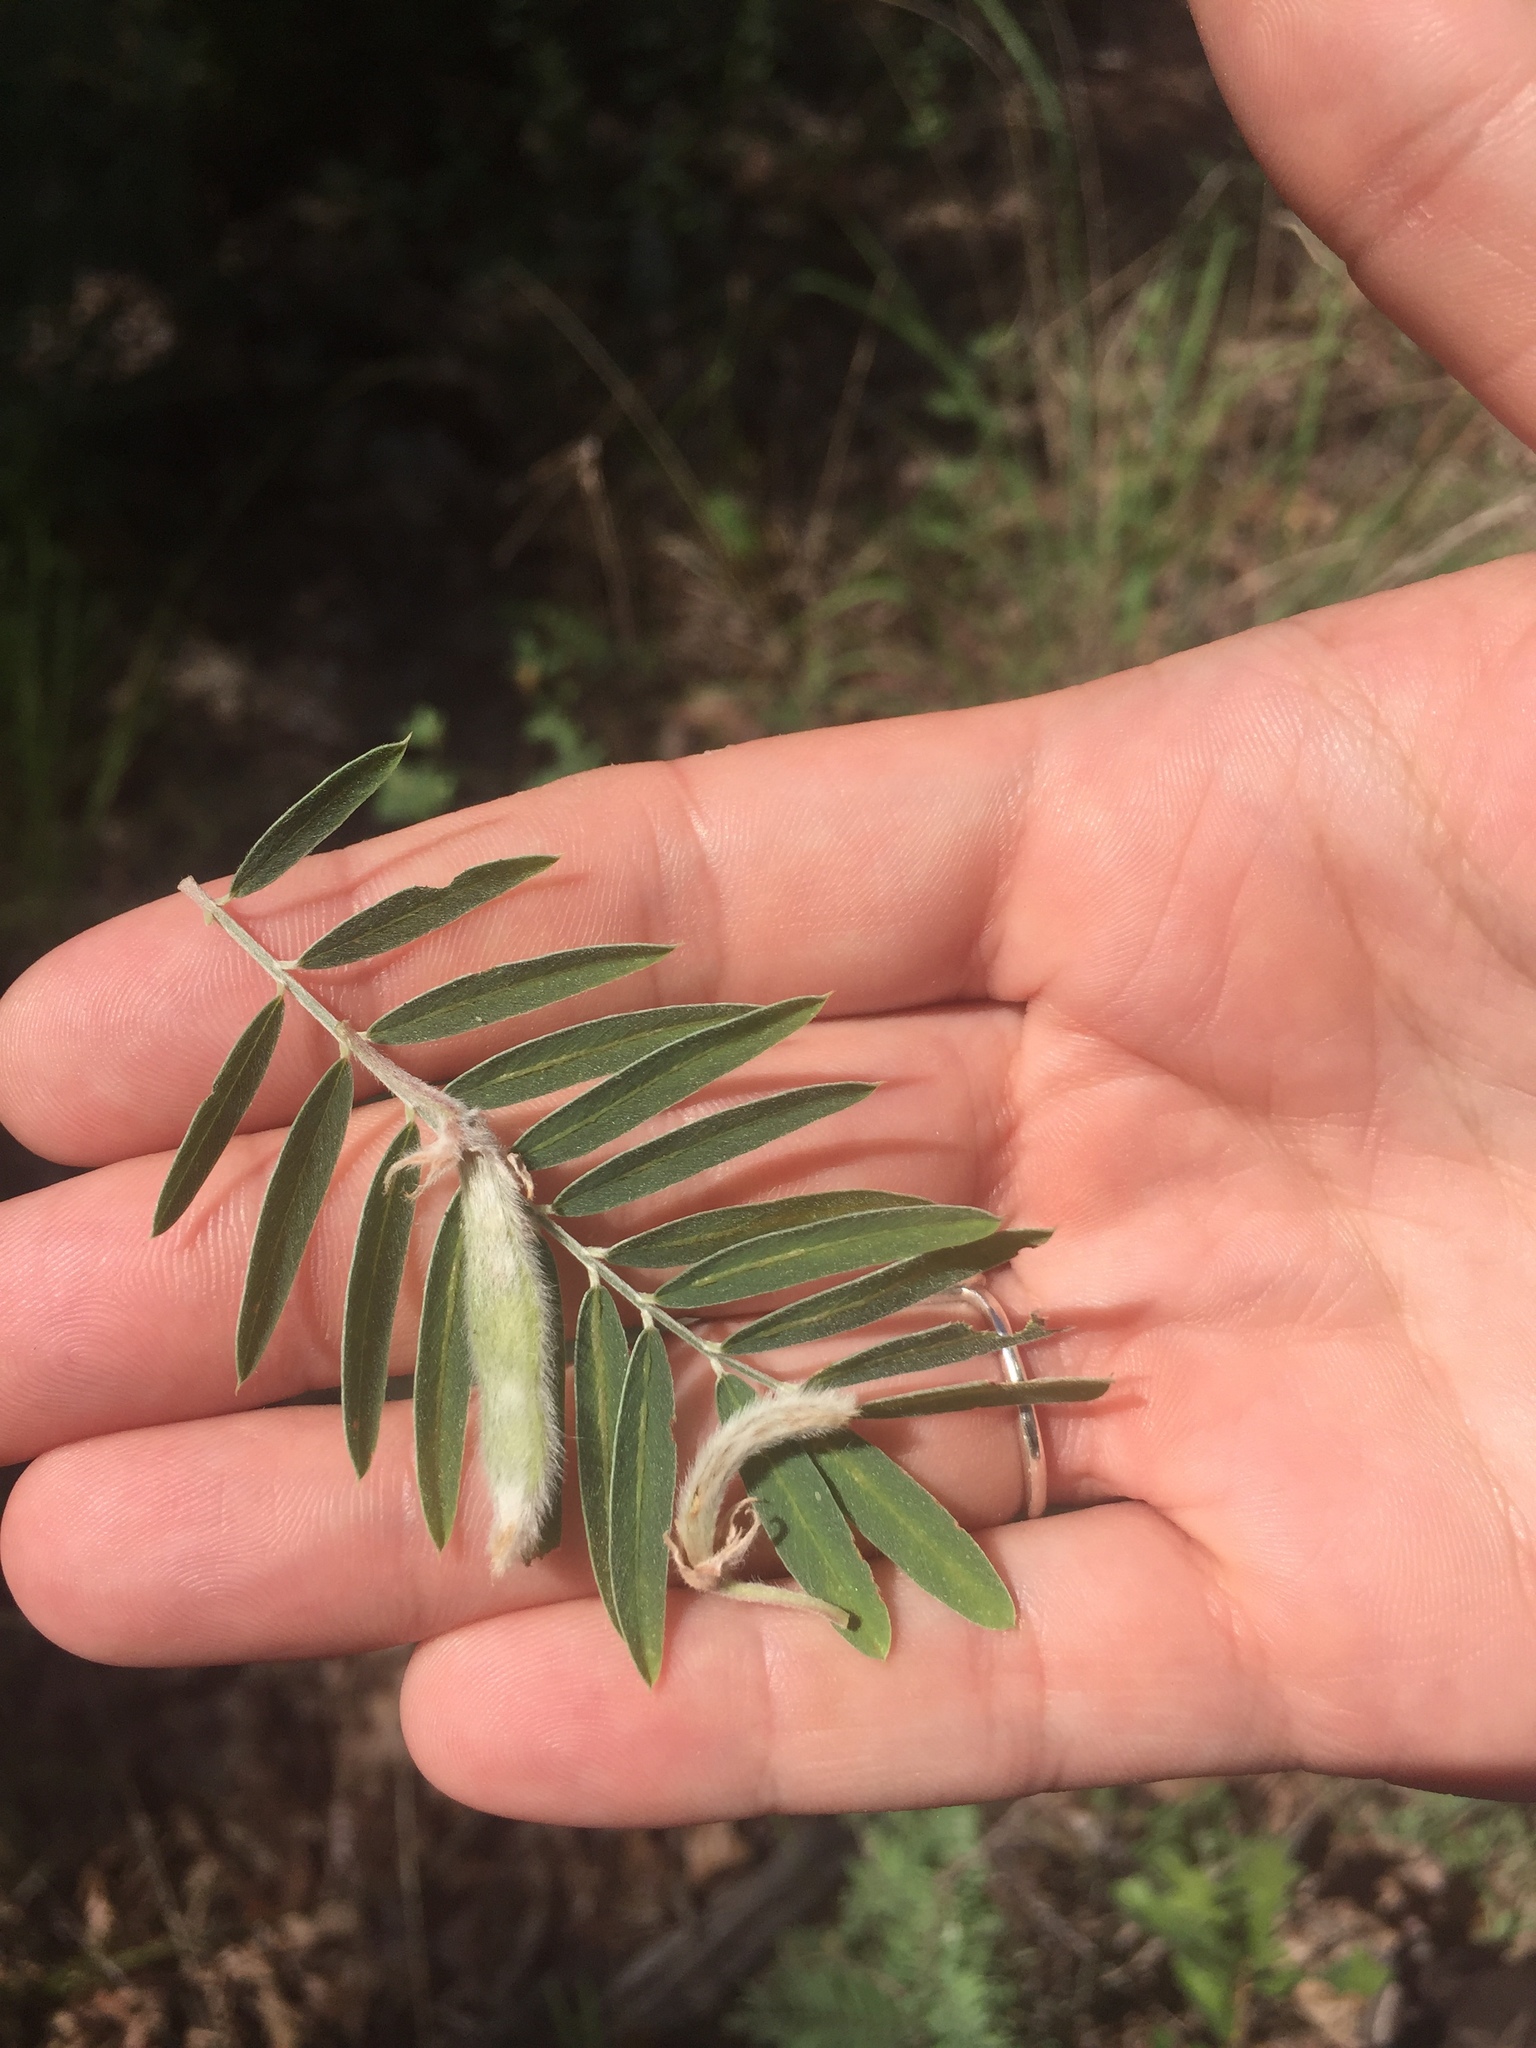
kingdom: Plantae
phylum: Tracheophyta
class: Magnoliopsida
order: Fabales
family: Fabaceae
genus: Tephrosia
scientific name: Tephrosia virginiana
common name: Rabbit-pea
